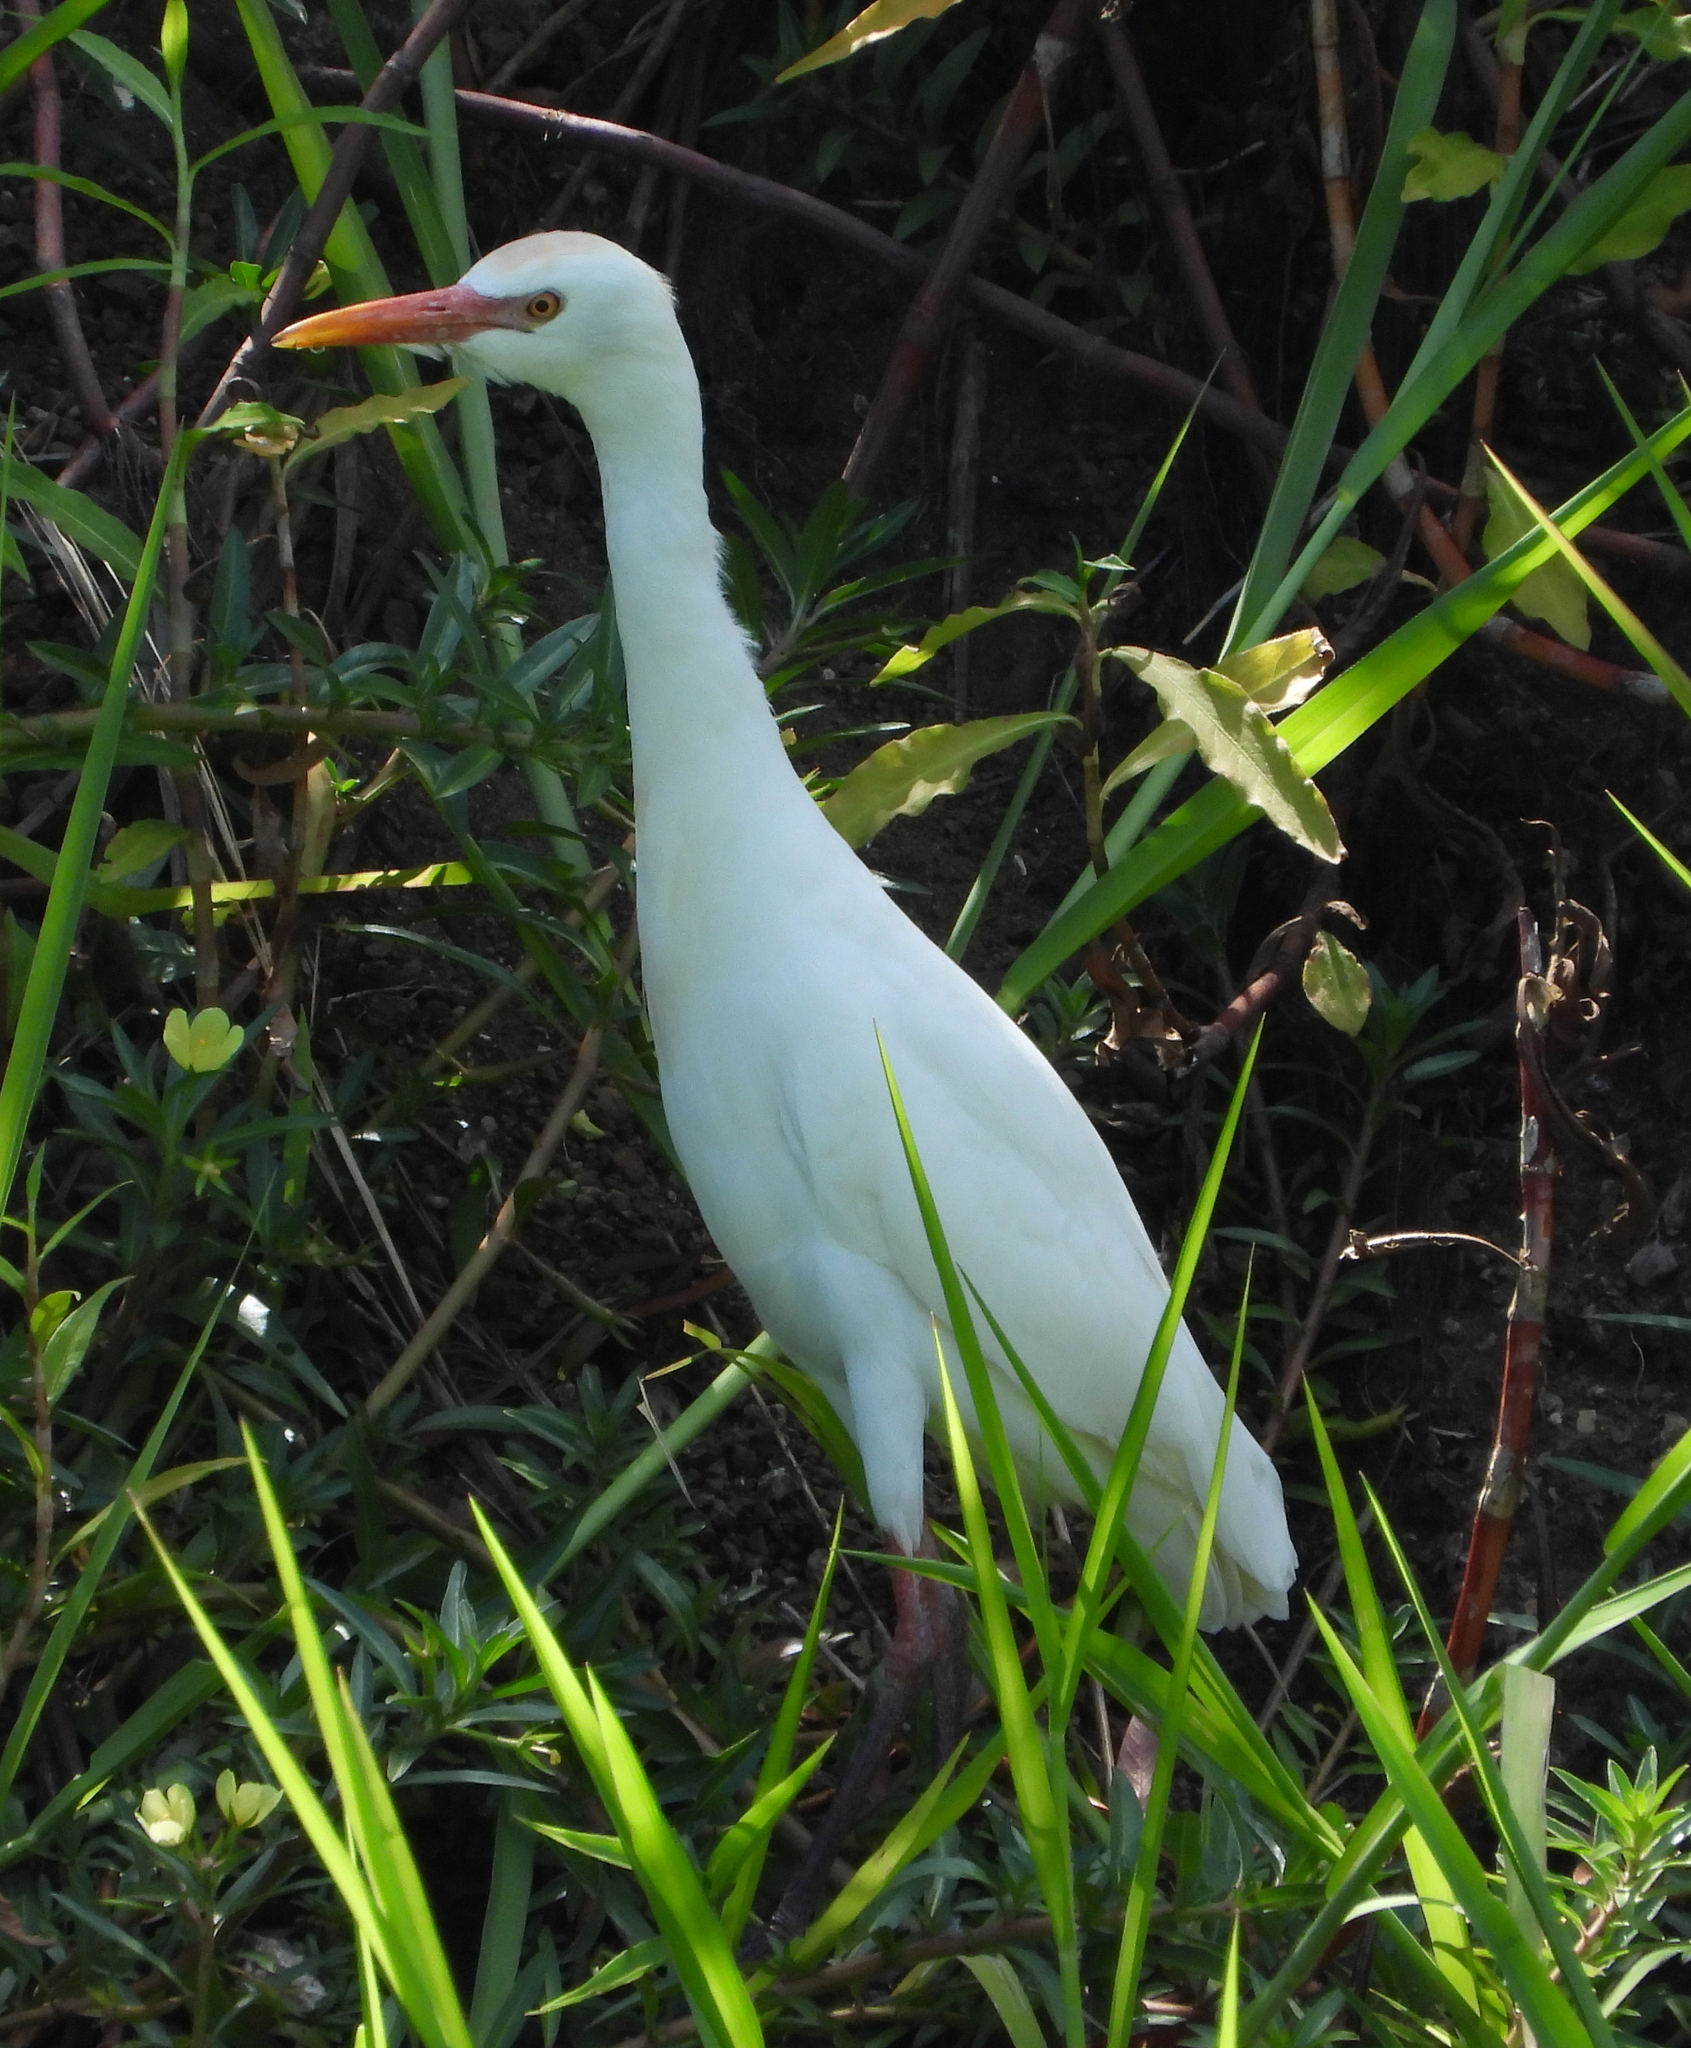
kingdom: Animalia
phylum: Chordata
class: Aves
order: Pelecaniformes
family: Ardeidae
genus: Bubulcus
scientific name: Bubulcus ibis
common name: Cattle egret
